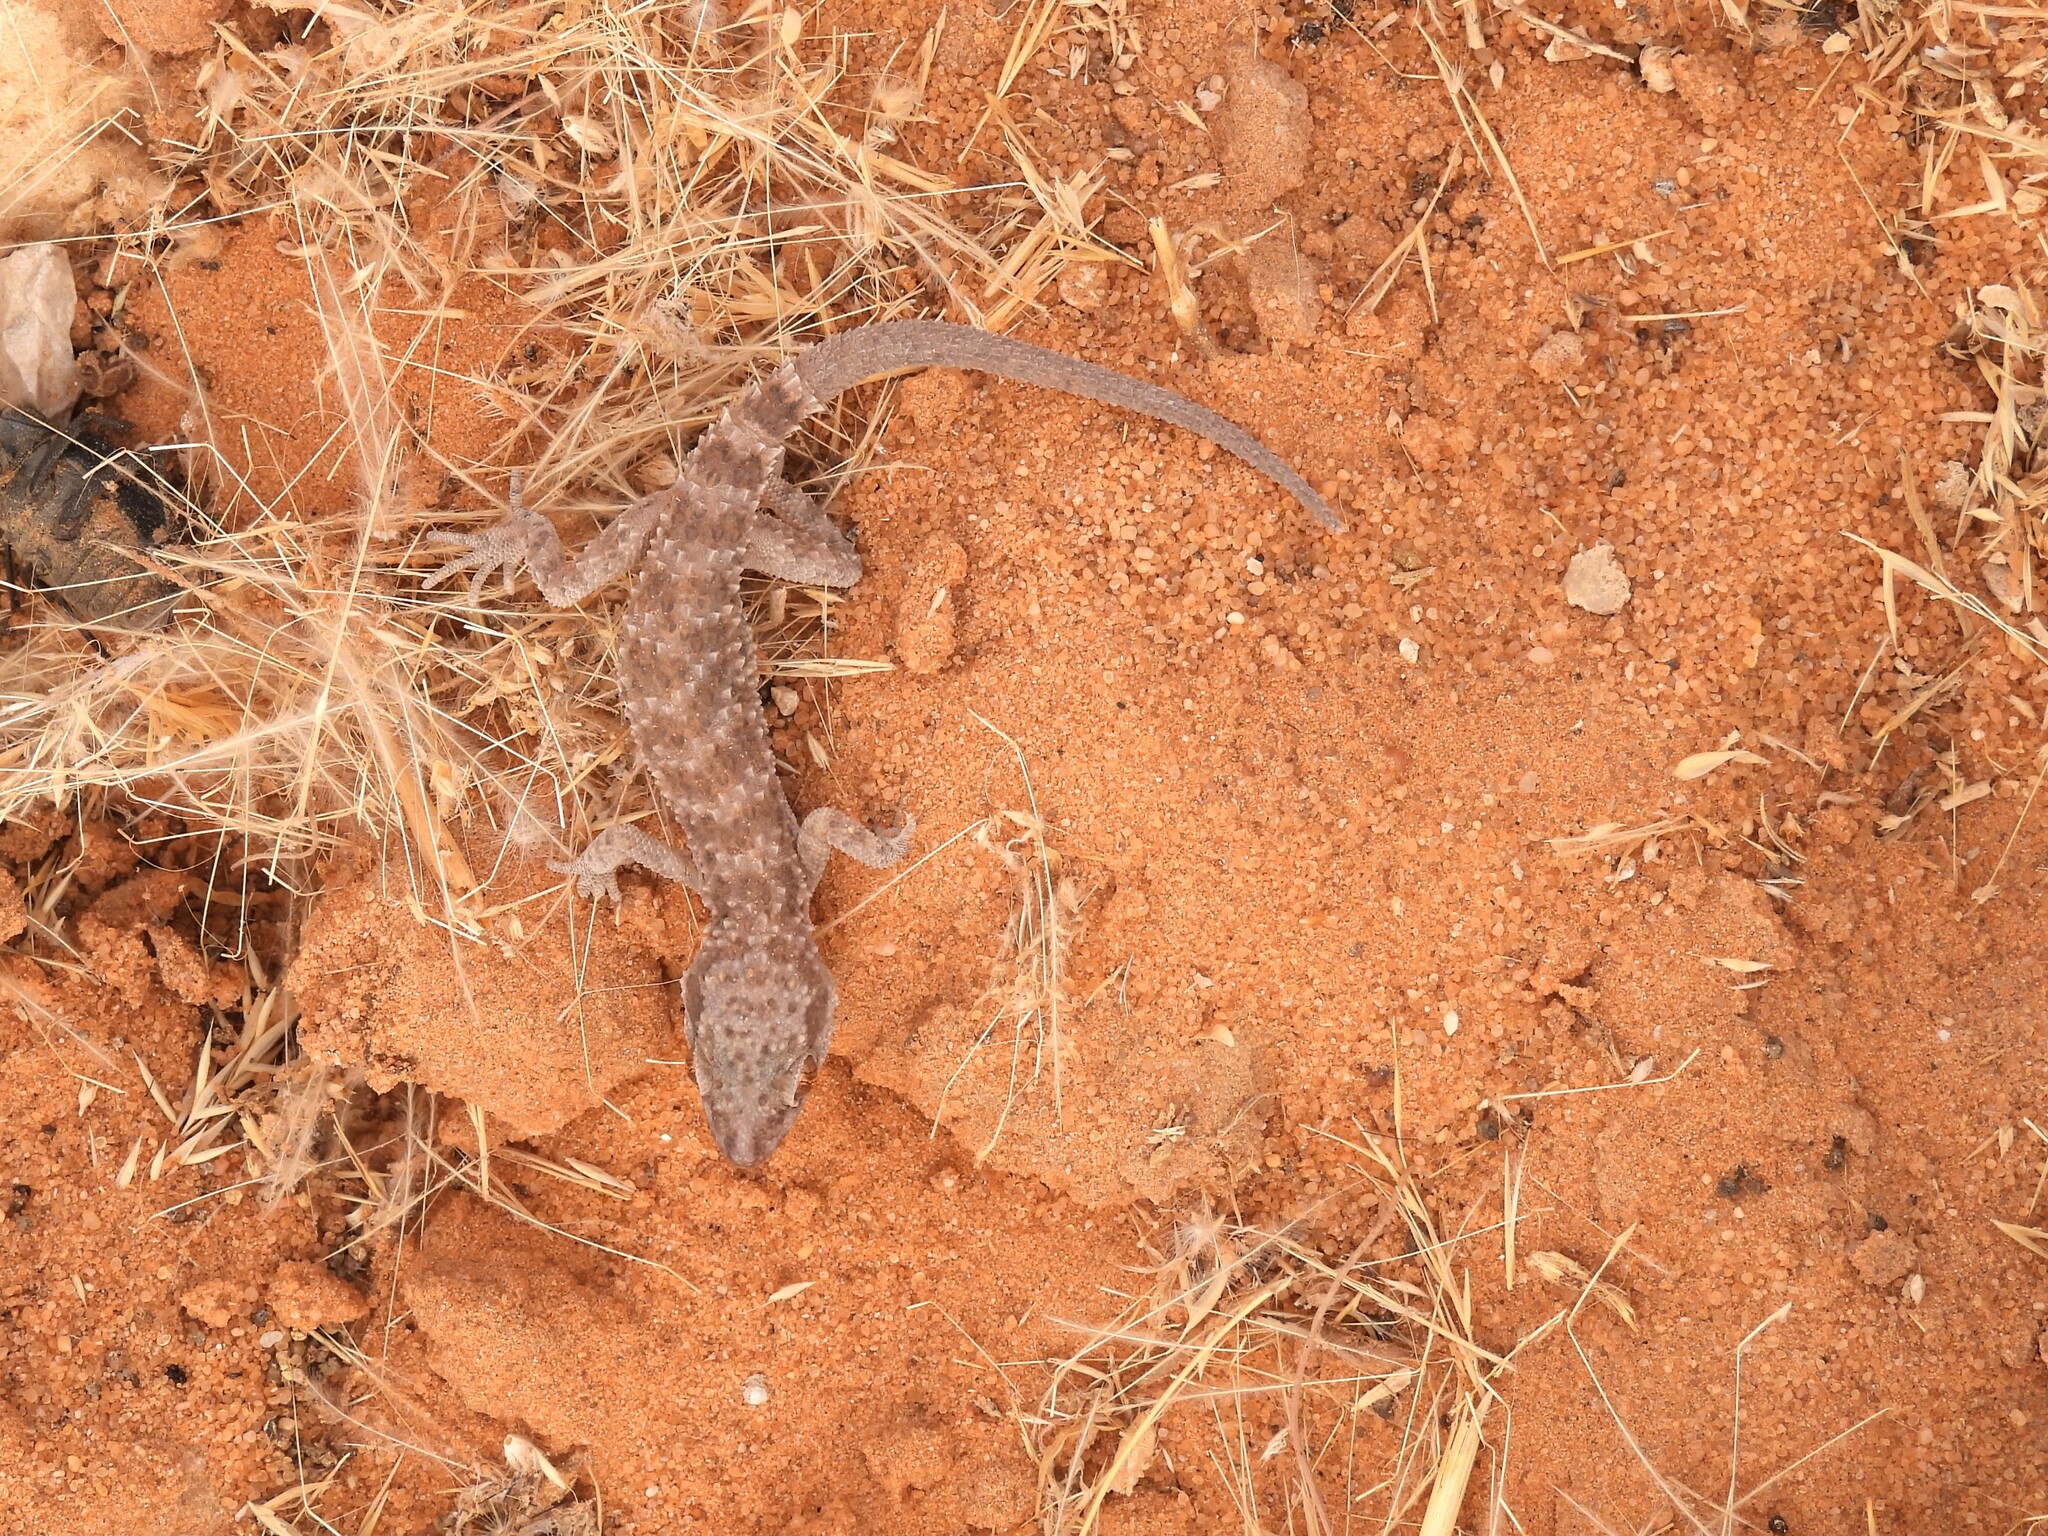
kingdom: Animalia
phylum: Chordata
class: Squamata
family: Gekkonidae
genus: Bunopus
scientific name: Bunopus tuberculatus
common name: Southern tuberculated gecko
